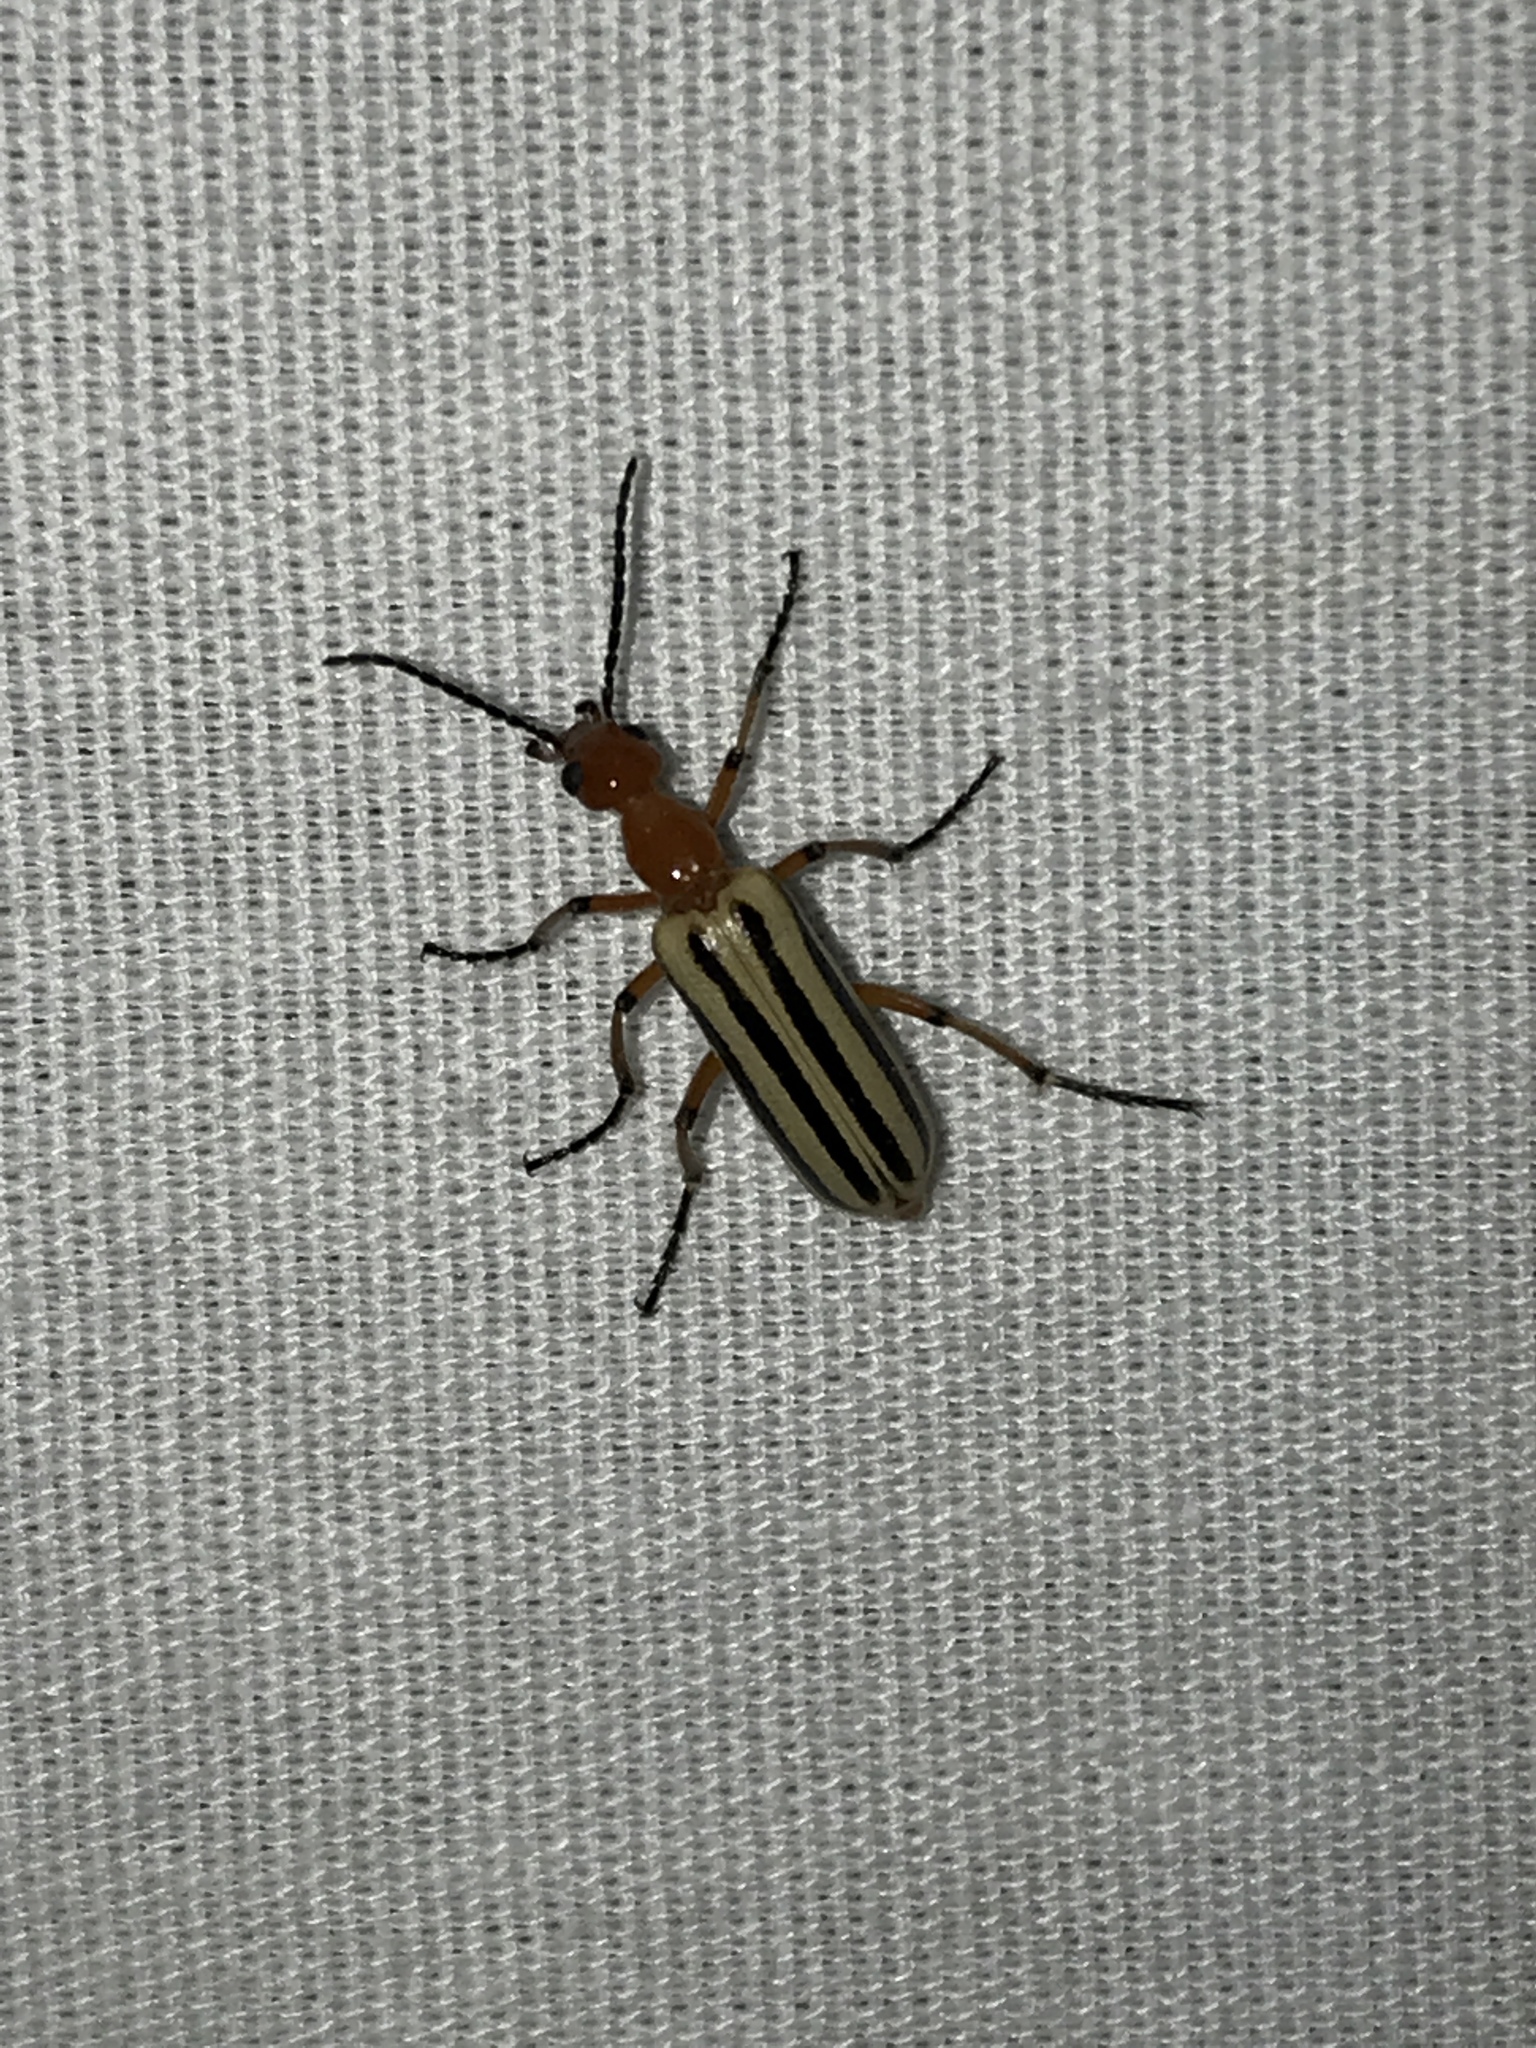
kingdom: Animalia
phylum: Arthropoda
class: Insecta
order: Coleoptera
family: Meloidae
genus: Pyrota
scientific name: Pyrota bilineata
